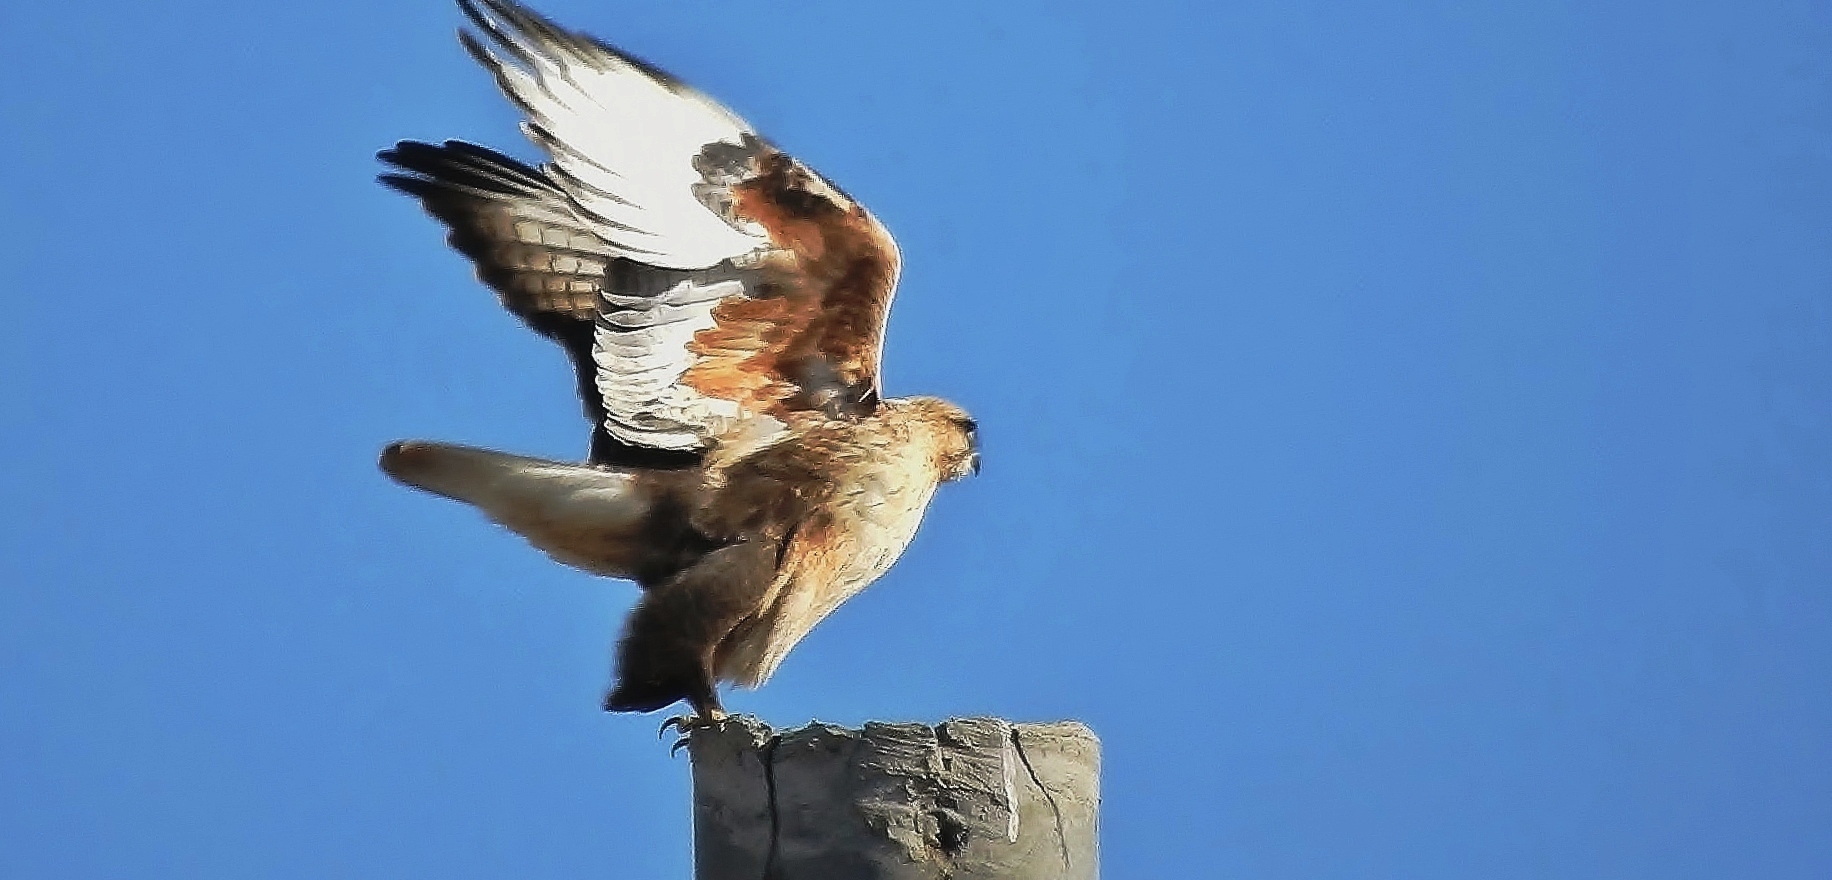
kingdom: Animalia
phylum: Chordata
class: Aves
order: Accipitriformes
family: Accipitridae
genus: Buteo
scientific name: Buteo hemilasius
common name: Upland buzzard
